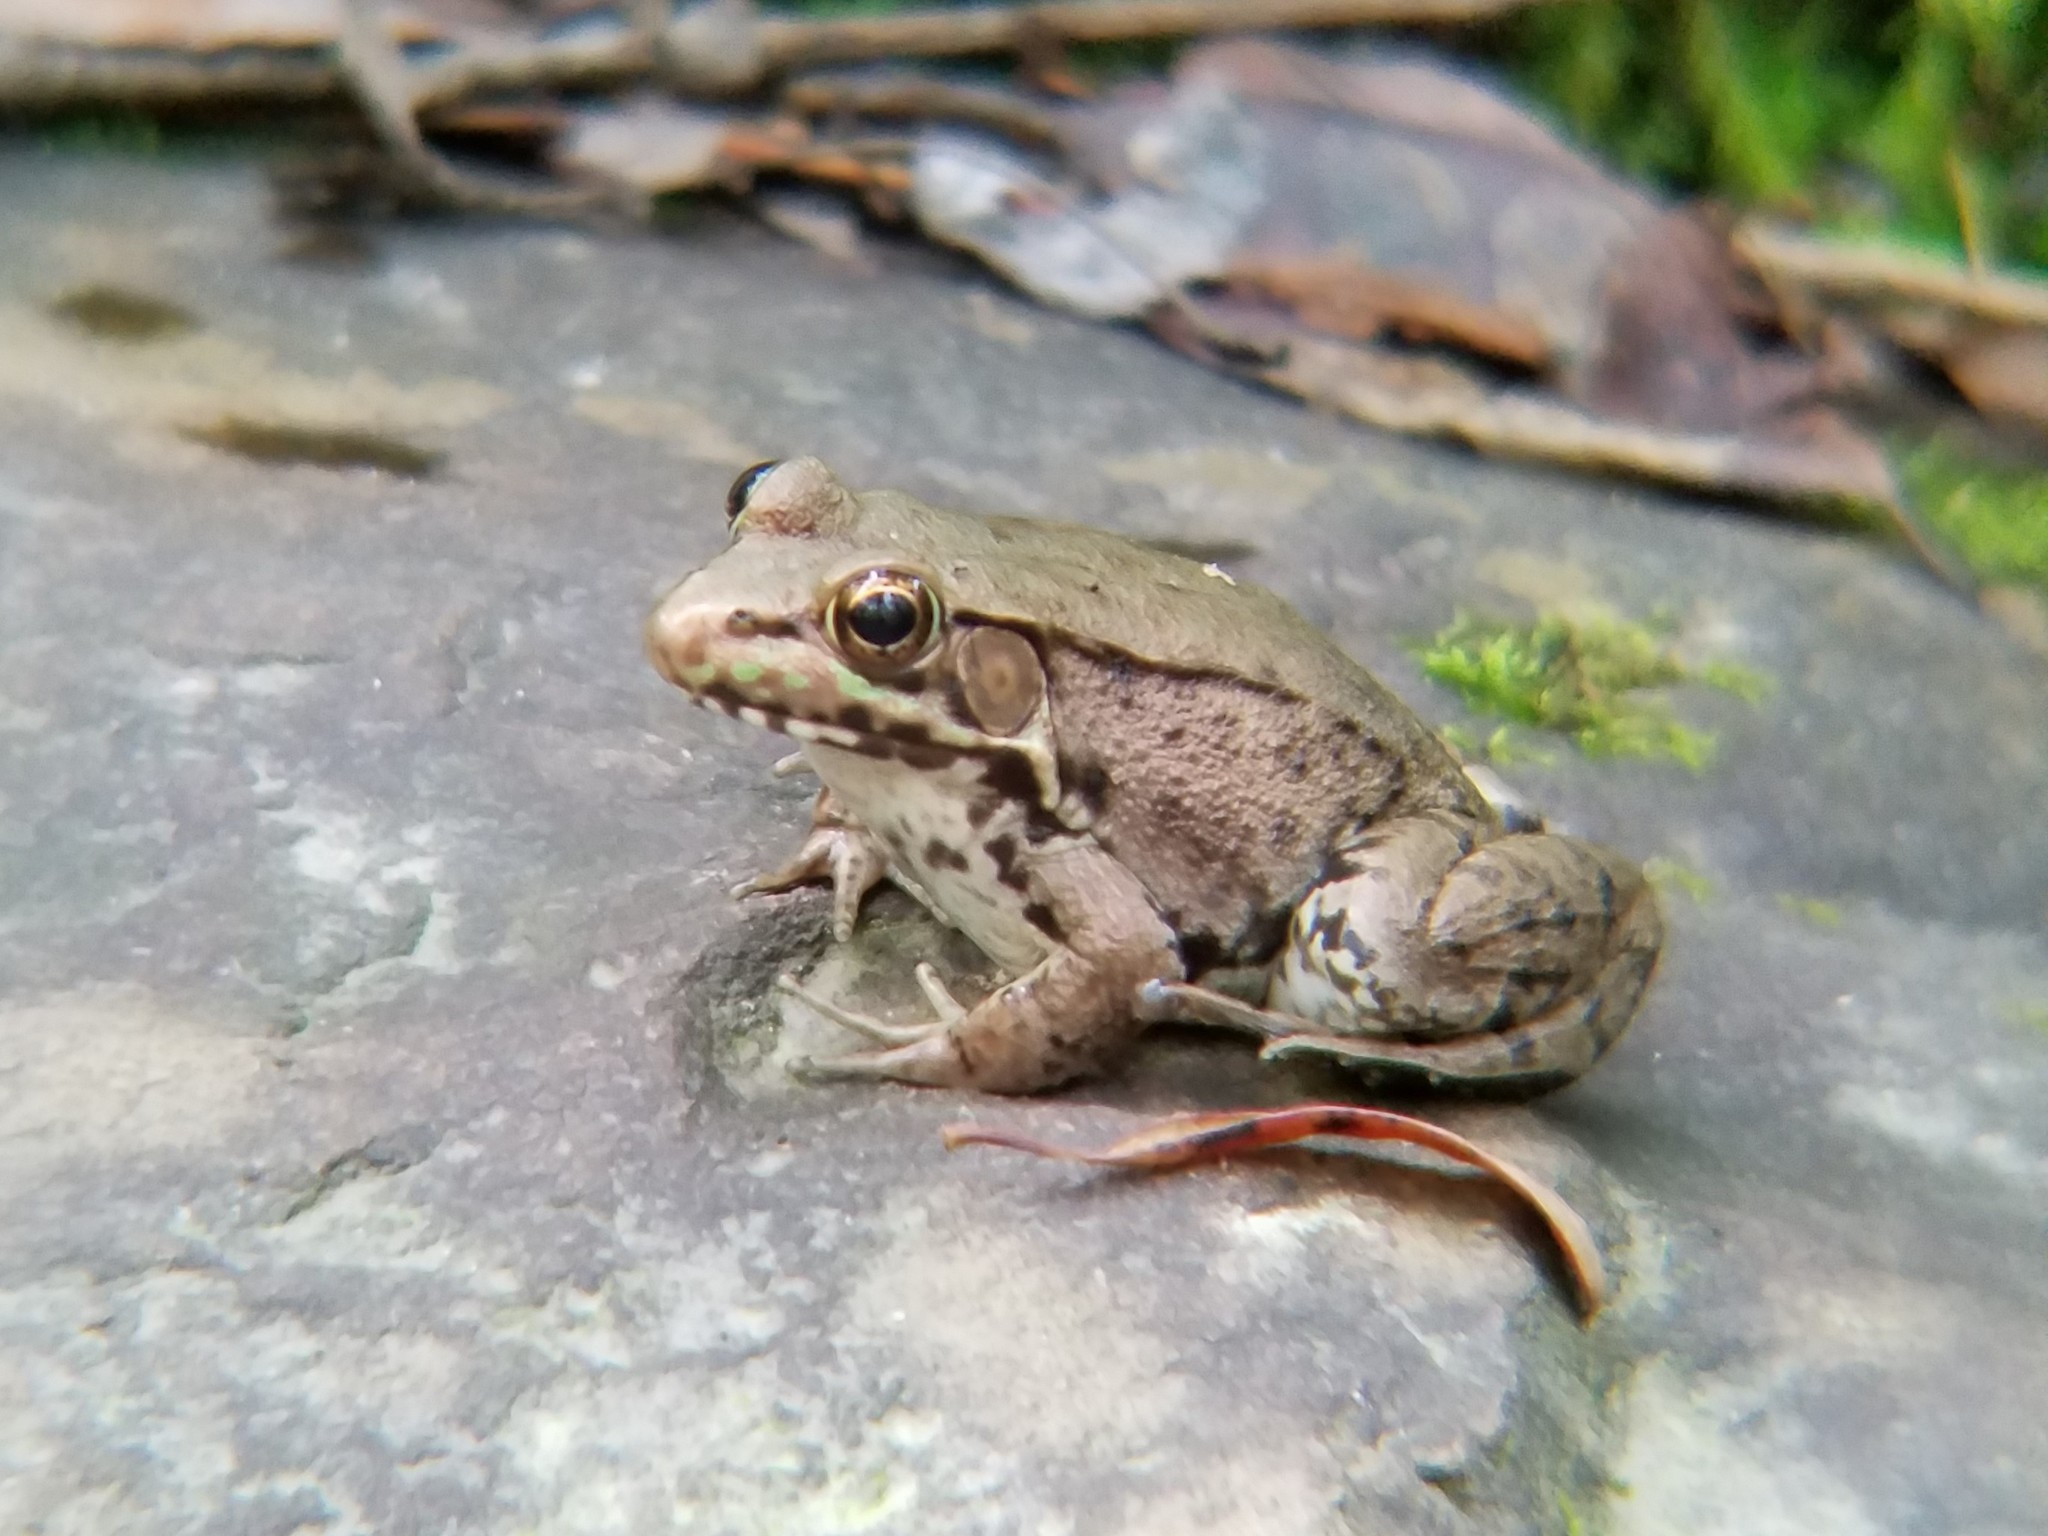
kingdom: Animalia
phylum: Chordata
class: Amphibia
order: Anura
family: Ranidae
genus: Lithobates
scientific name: Lithobates clamitans
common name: Green frog
